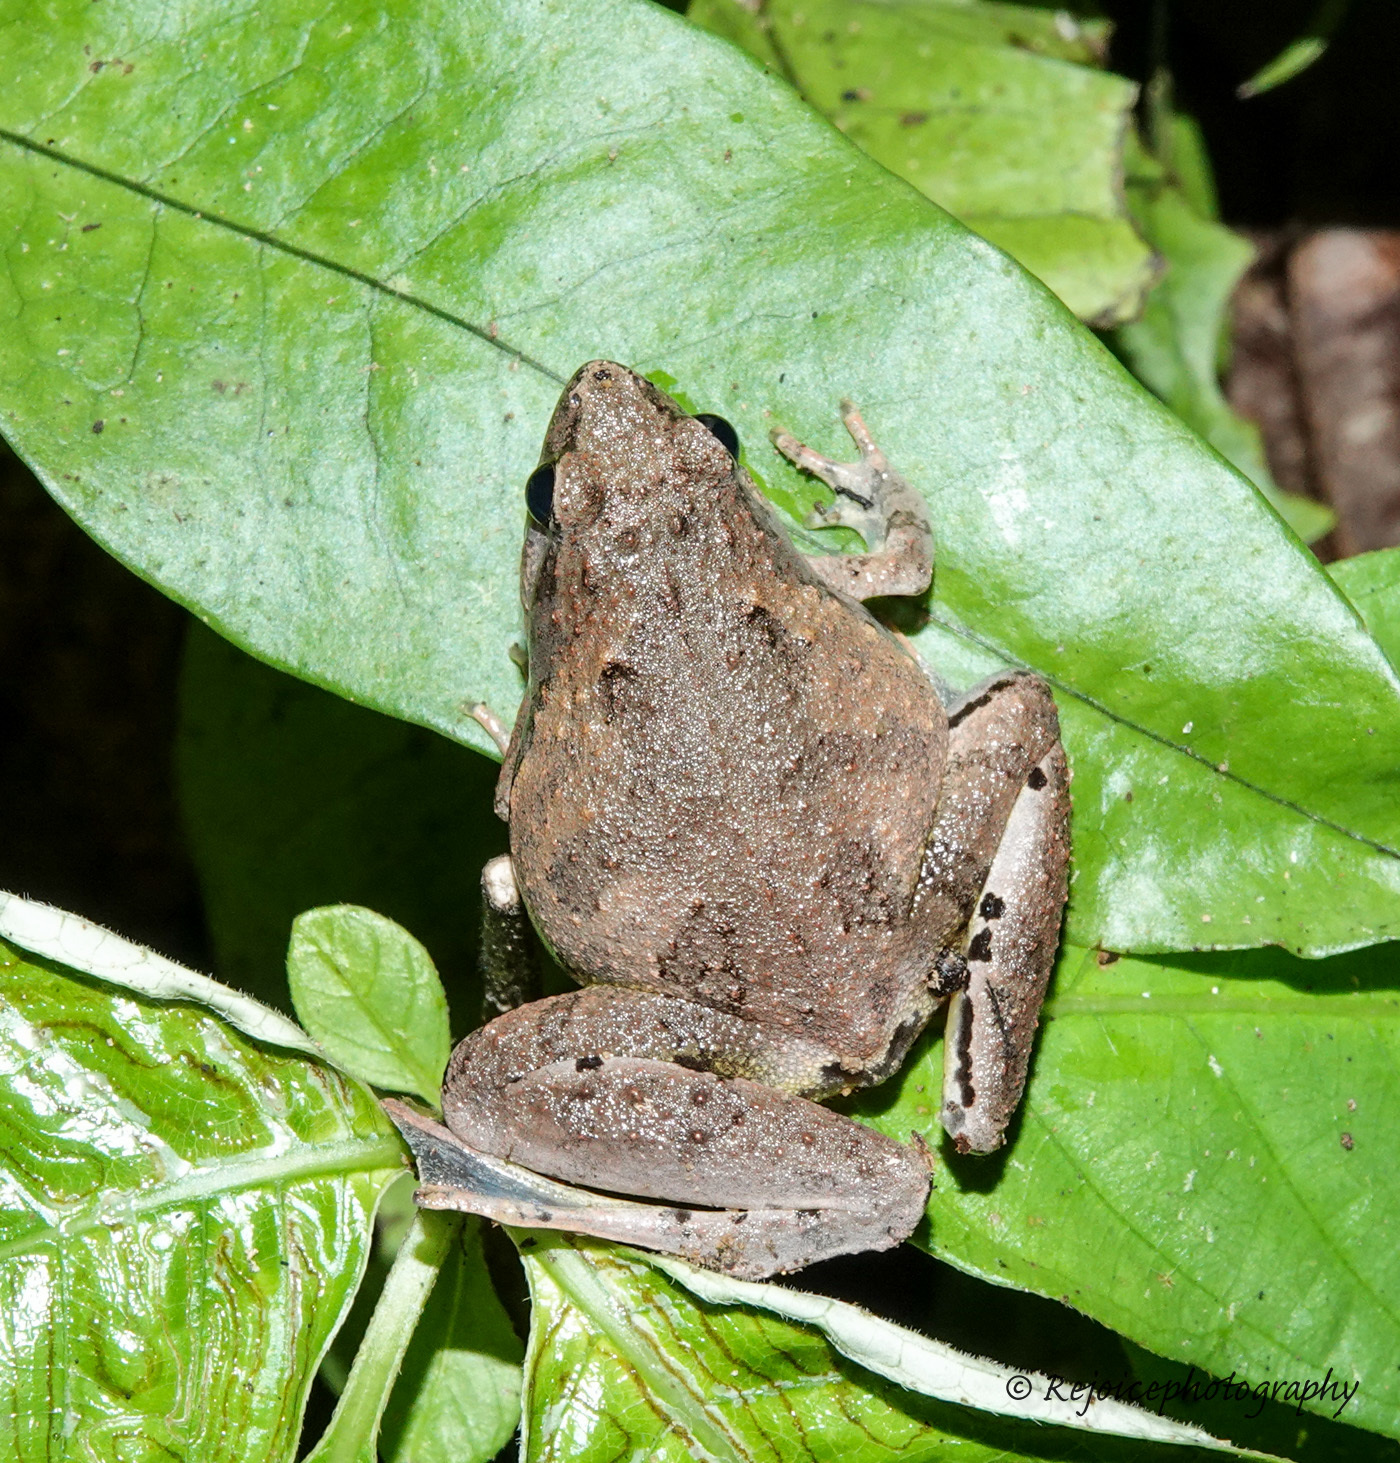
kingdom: Animalia
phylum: Chordata
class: Amphibia
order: Anura
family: Microhylidae
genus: Microhyla
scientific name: Microhyla berdmorei
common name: Berdmore’s narrow-mouthed frog,large pygmy frog
